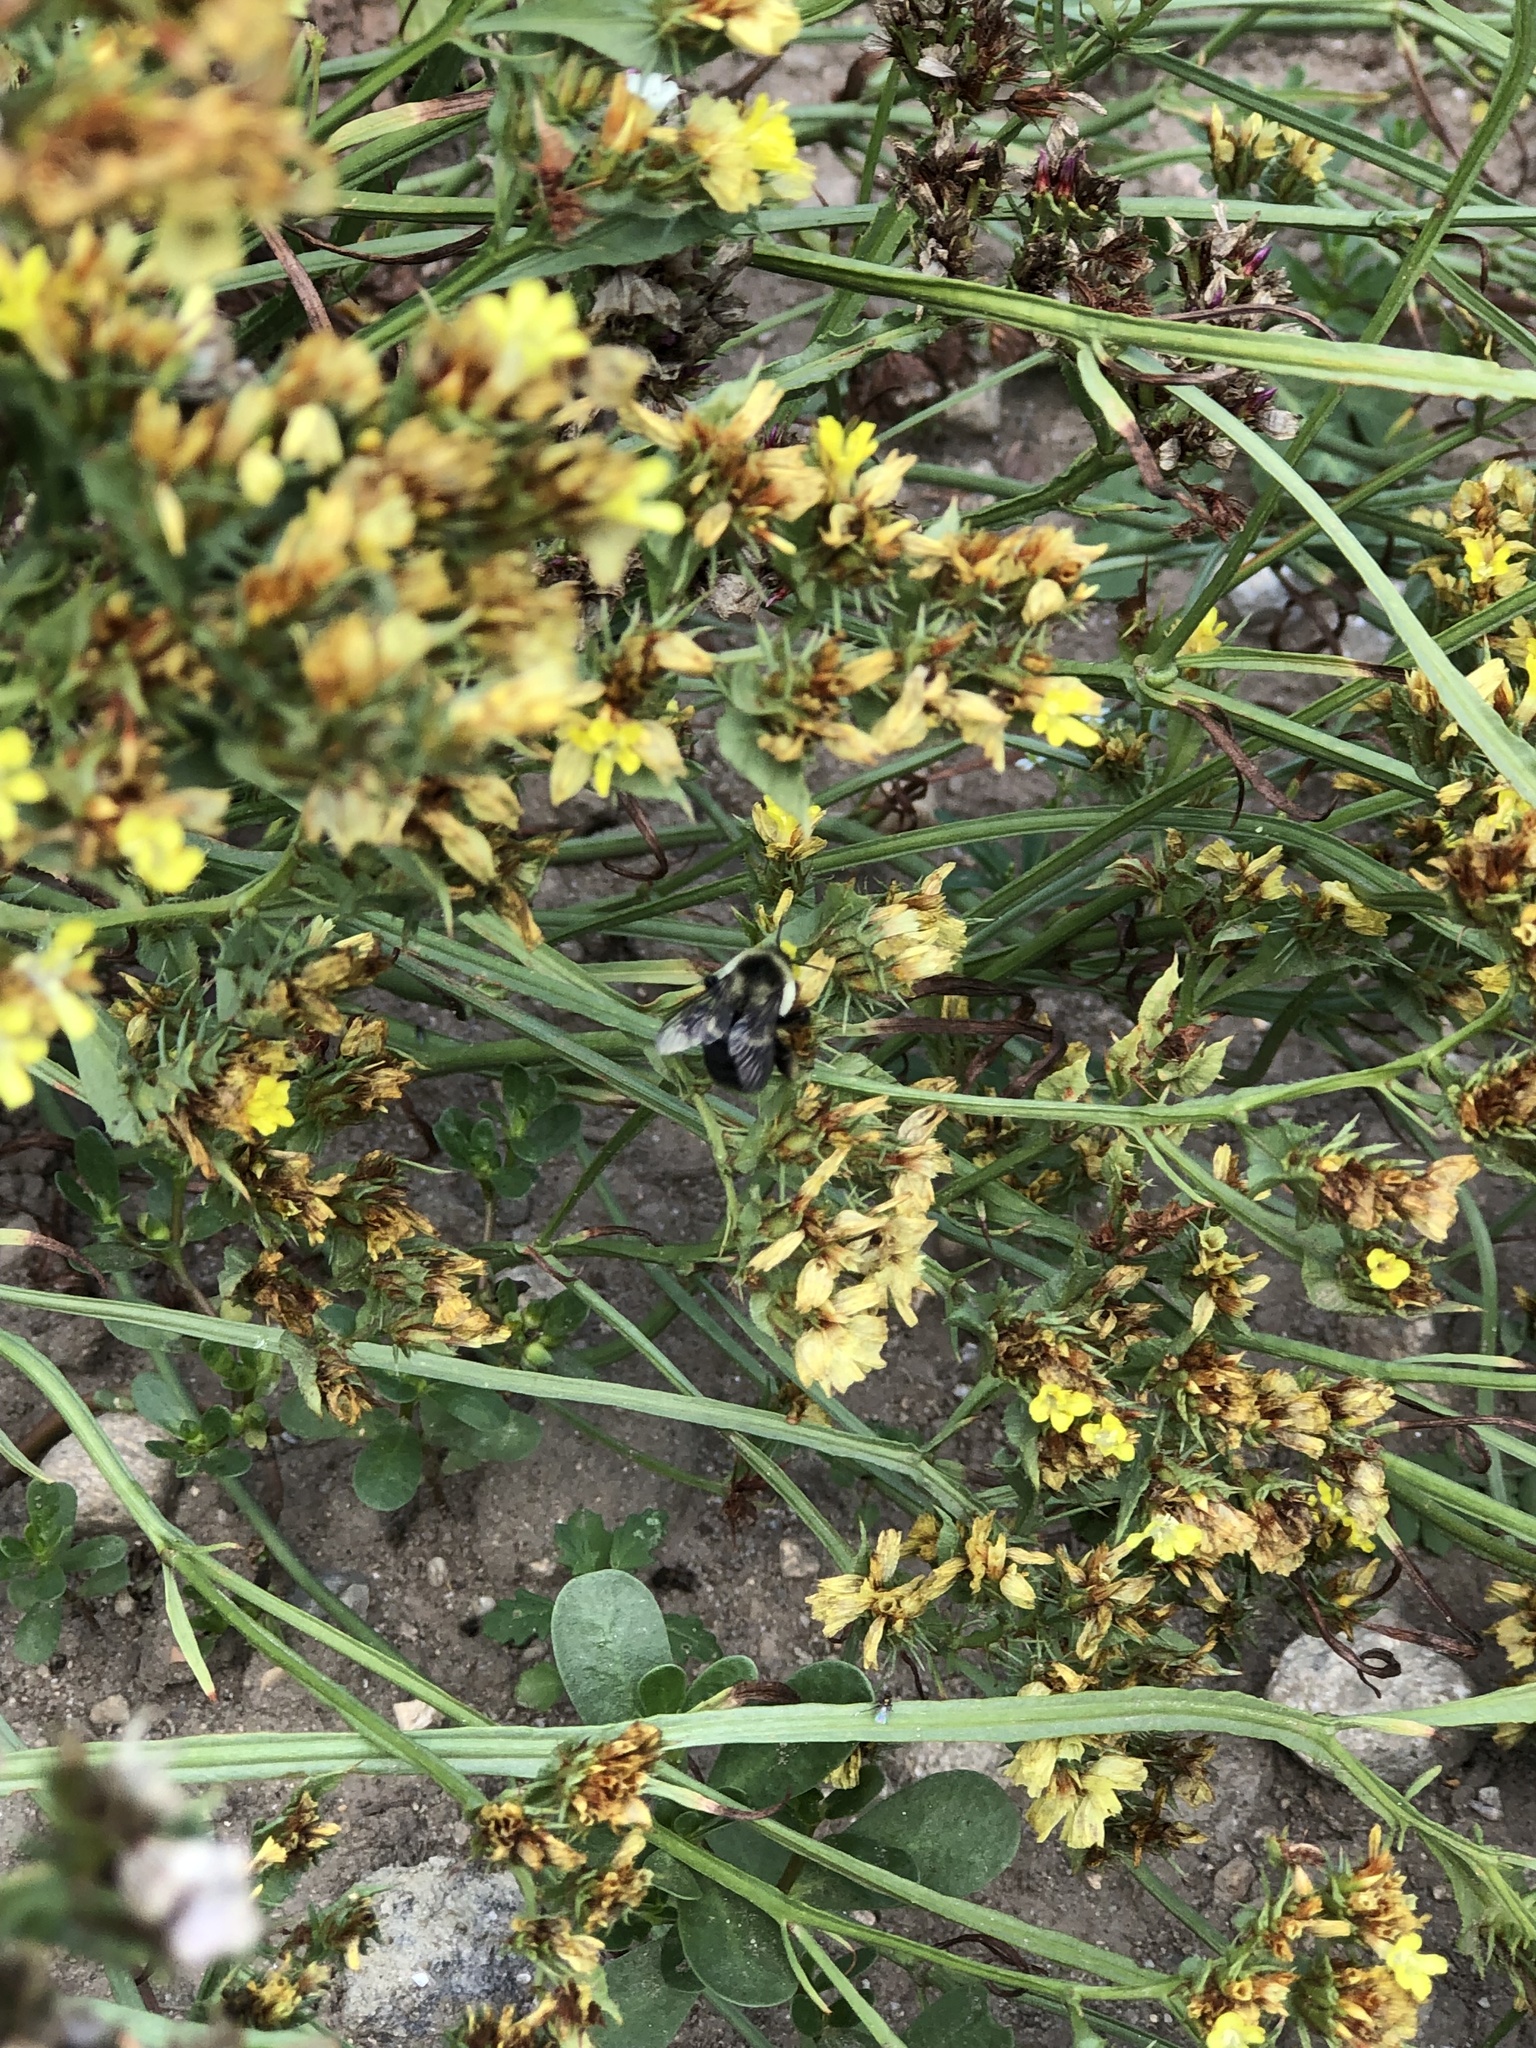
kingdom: Animalia
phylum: Arthropoda
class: Insecta
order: Hymenoptera
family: Apidae
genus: Bombus
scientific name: Bombus impatiens
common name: Common eastern bumble bee
